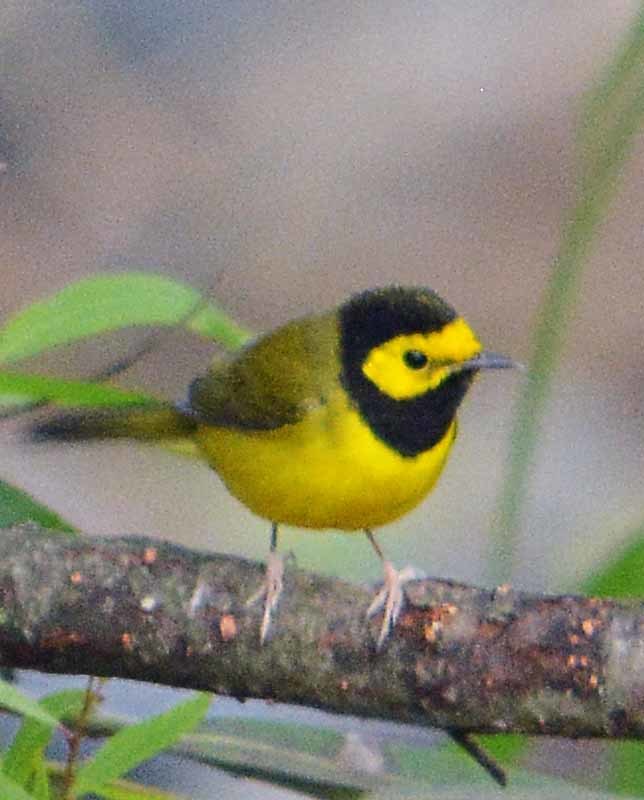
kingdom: Animalia
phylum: Chordata
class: Aves
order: Passeriformes
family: Parulidae
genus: Setophaga
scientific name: Setophaga citrina
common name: Hooded warbler
